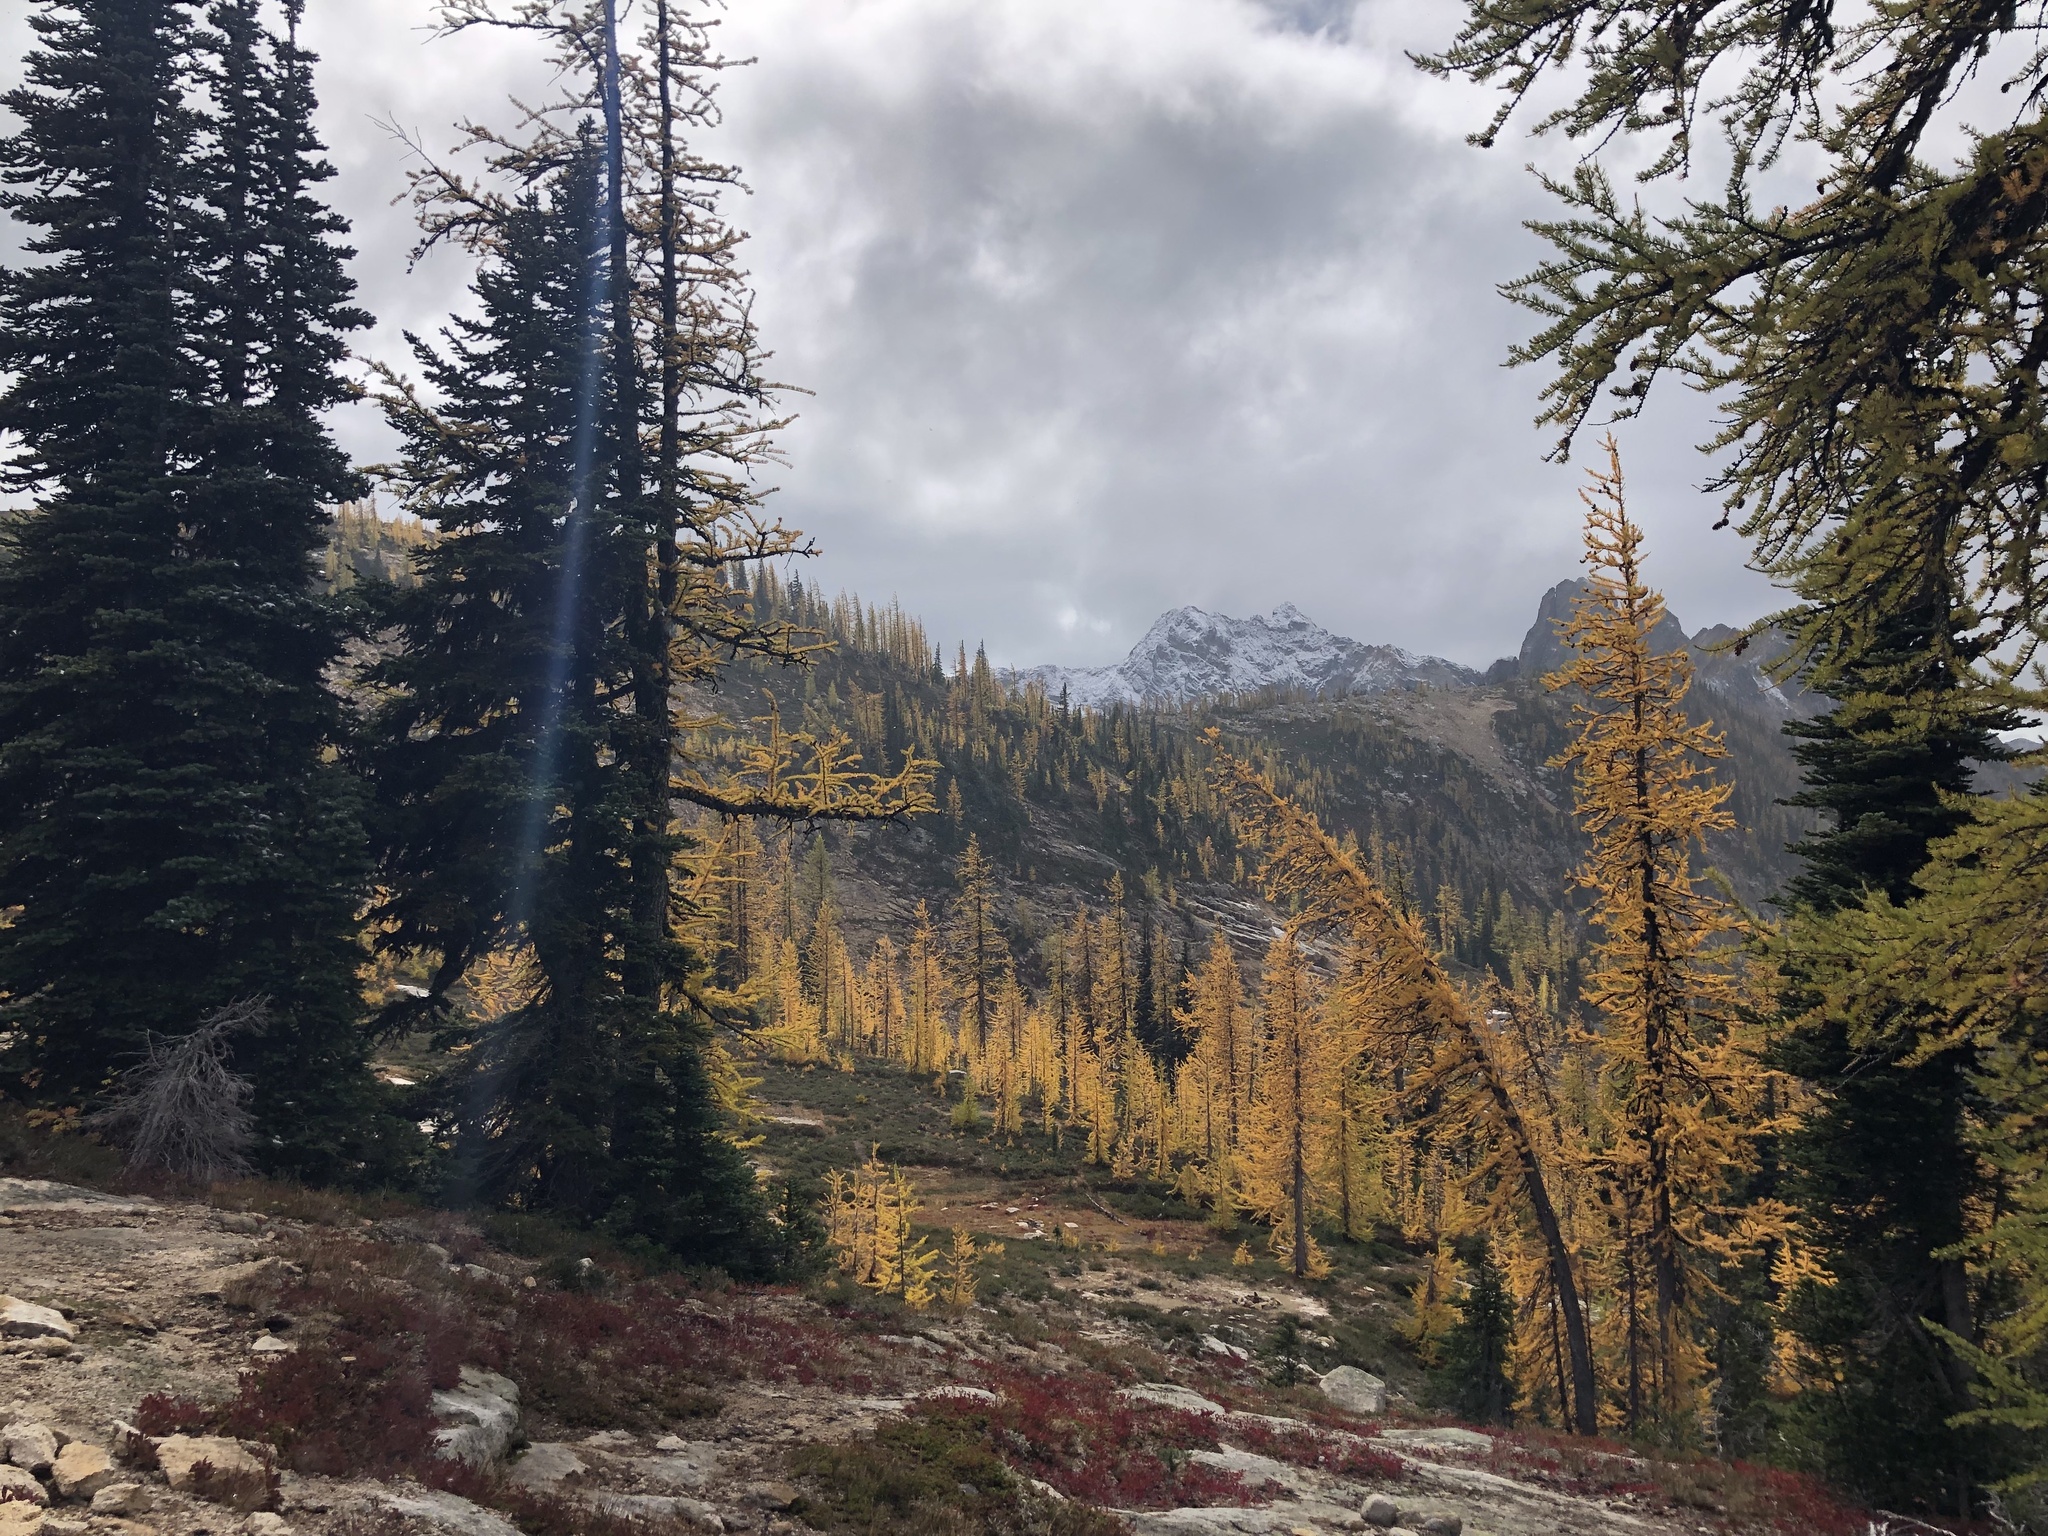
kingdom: Plantae
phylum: Tracheophyta
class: Pinopsida
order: Pinales
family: Pinaceae
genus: Abies
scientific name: Abies lasiocarpa
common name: Subalpine fir
